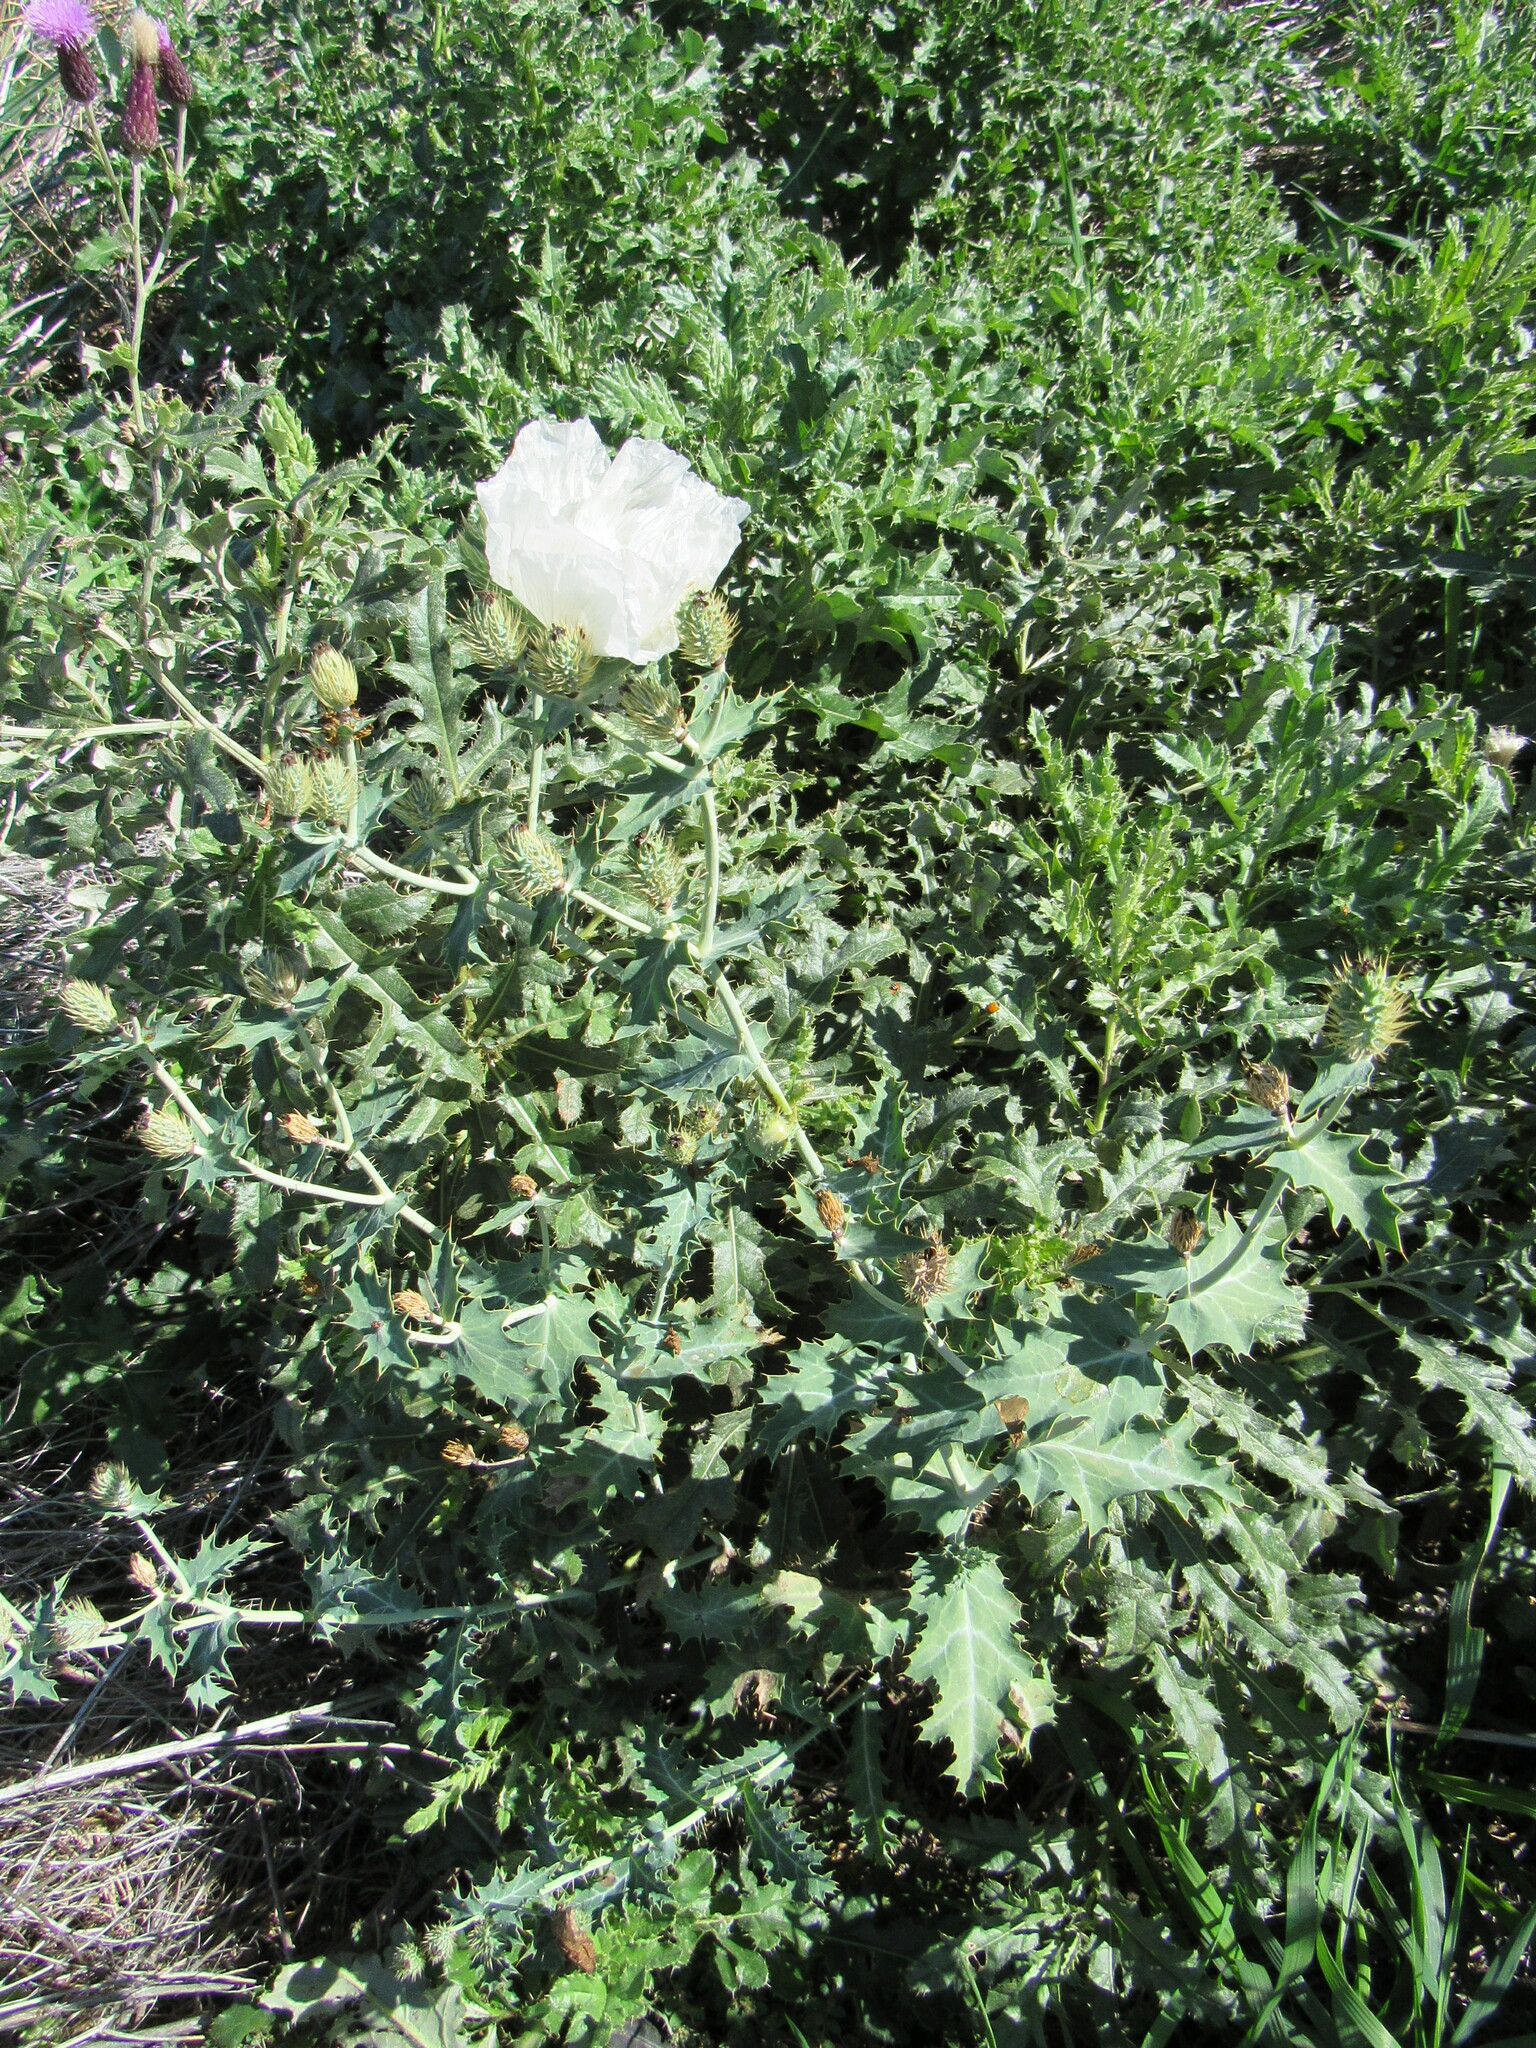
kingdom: Plantae
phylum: Tracheophyta
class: Magnoliopsida
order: Ranunculales
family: Papaveraceae
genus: Argemone
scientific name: Argemone polyanthemos
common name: Plains prickly-poppy
